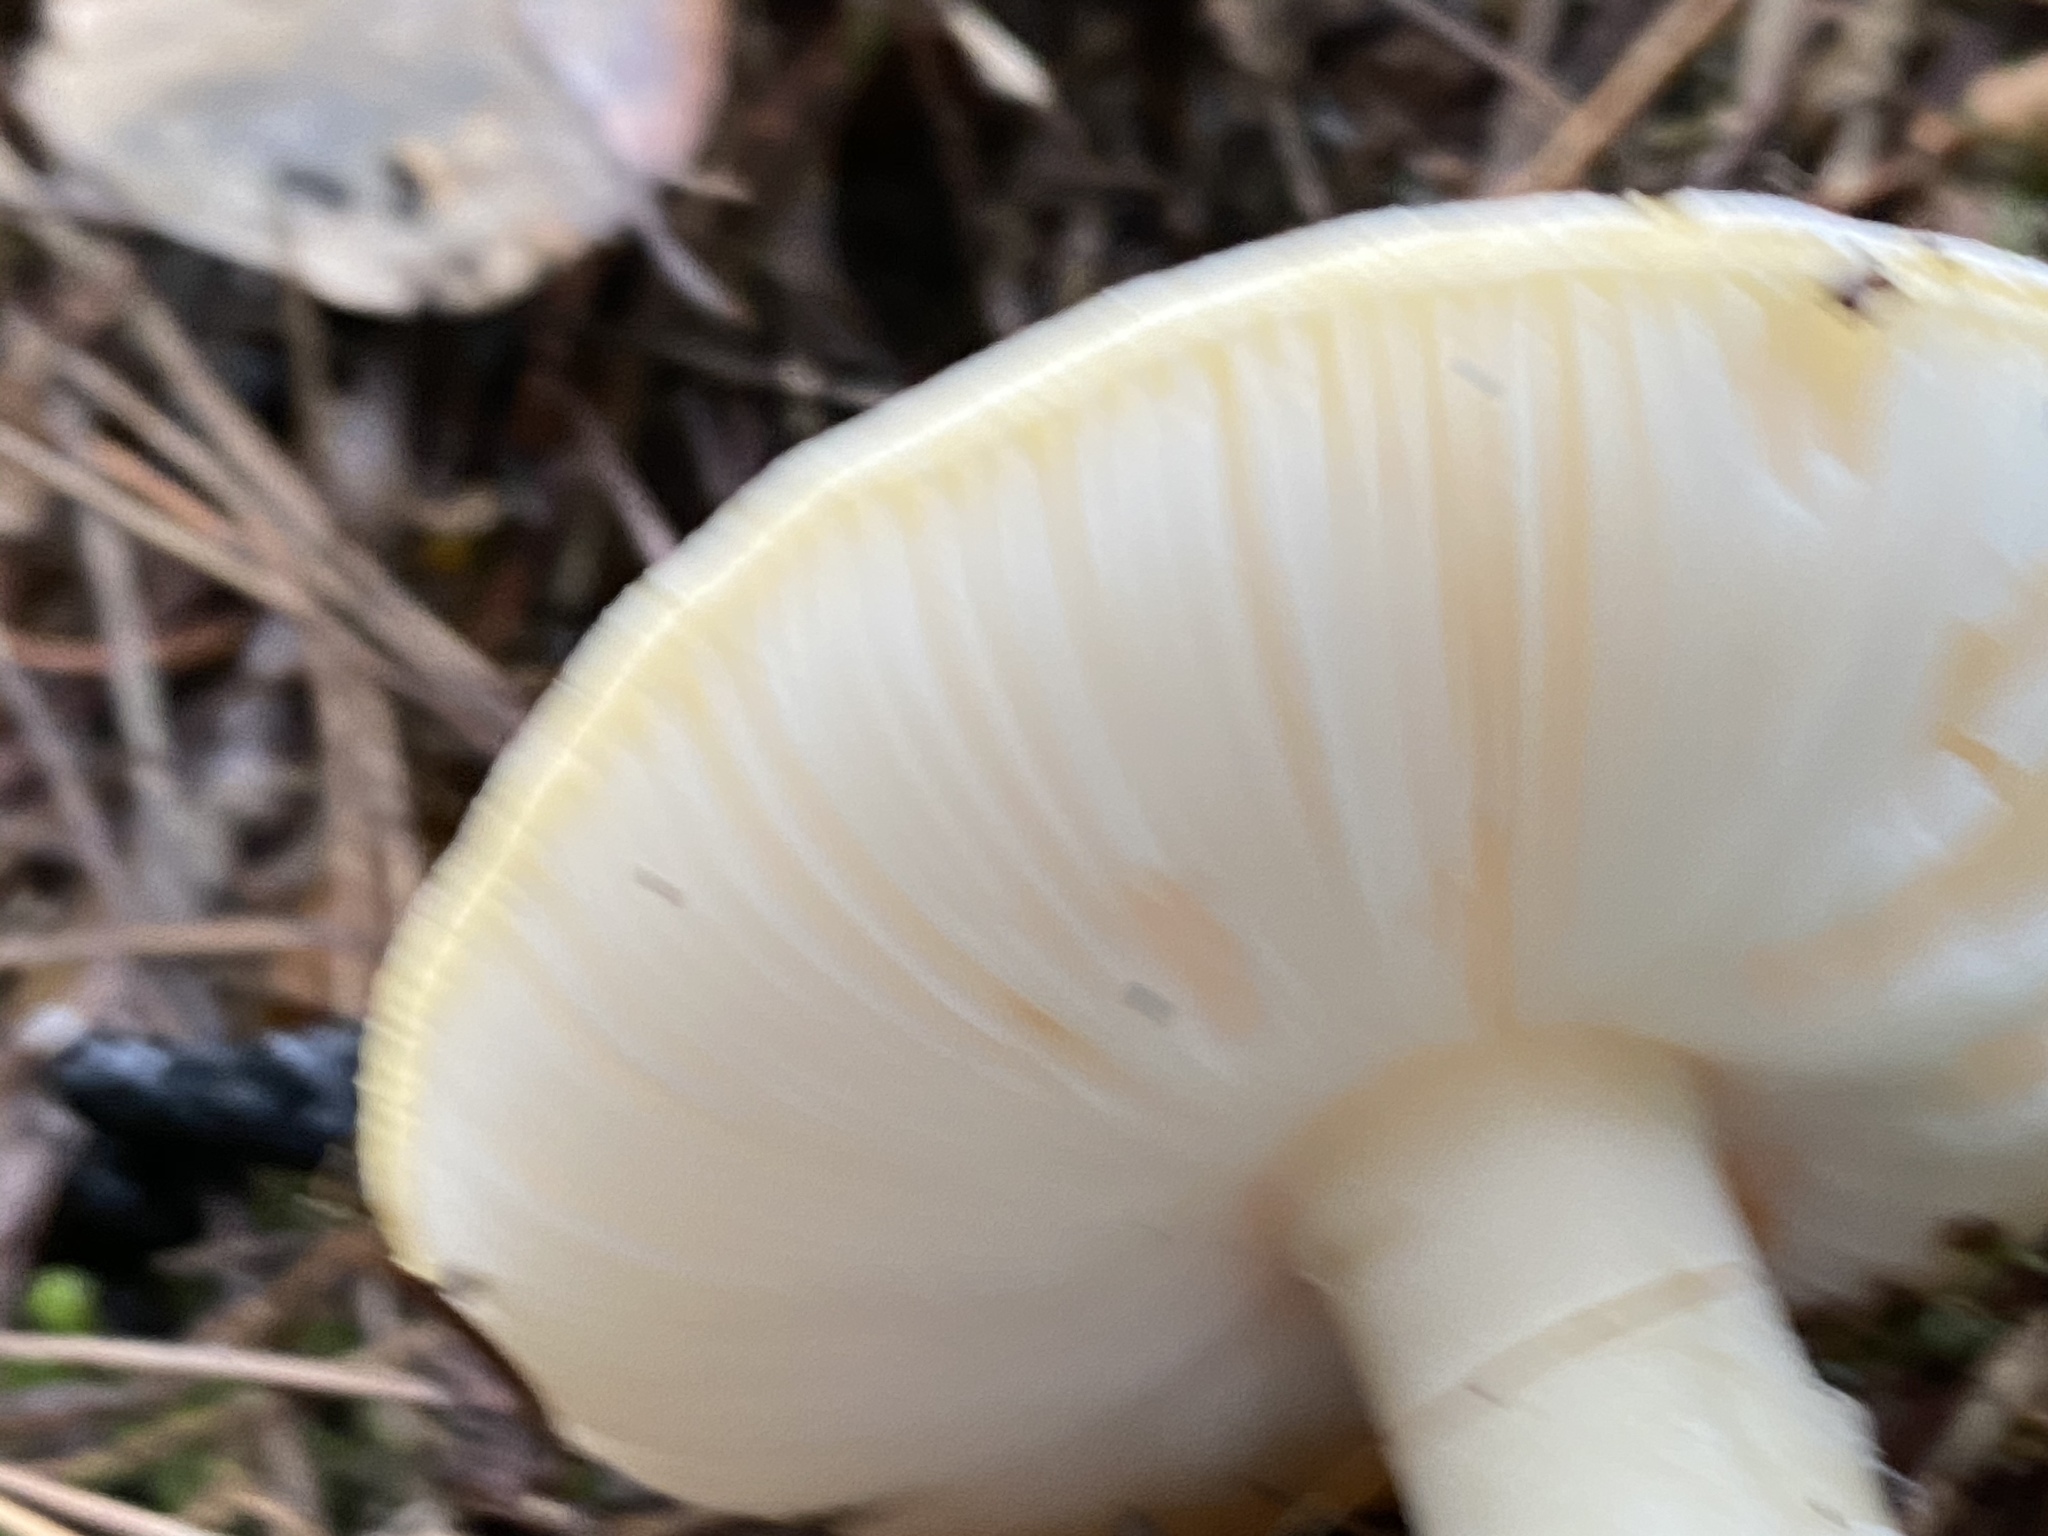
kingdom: Fungi
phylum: Basidiomycota
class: Agaricomycetes
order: Agaricales
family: Amanitaceae
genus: Amanita
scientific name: Amanita gemmata
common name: Jewelled amanita
